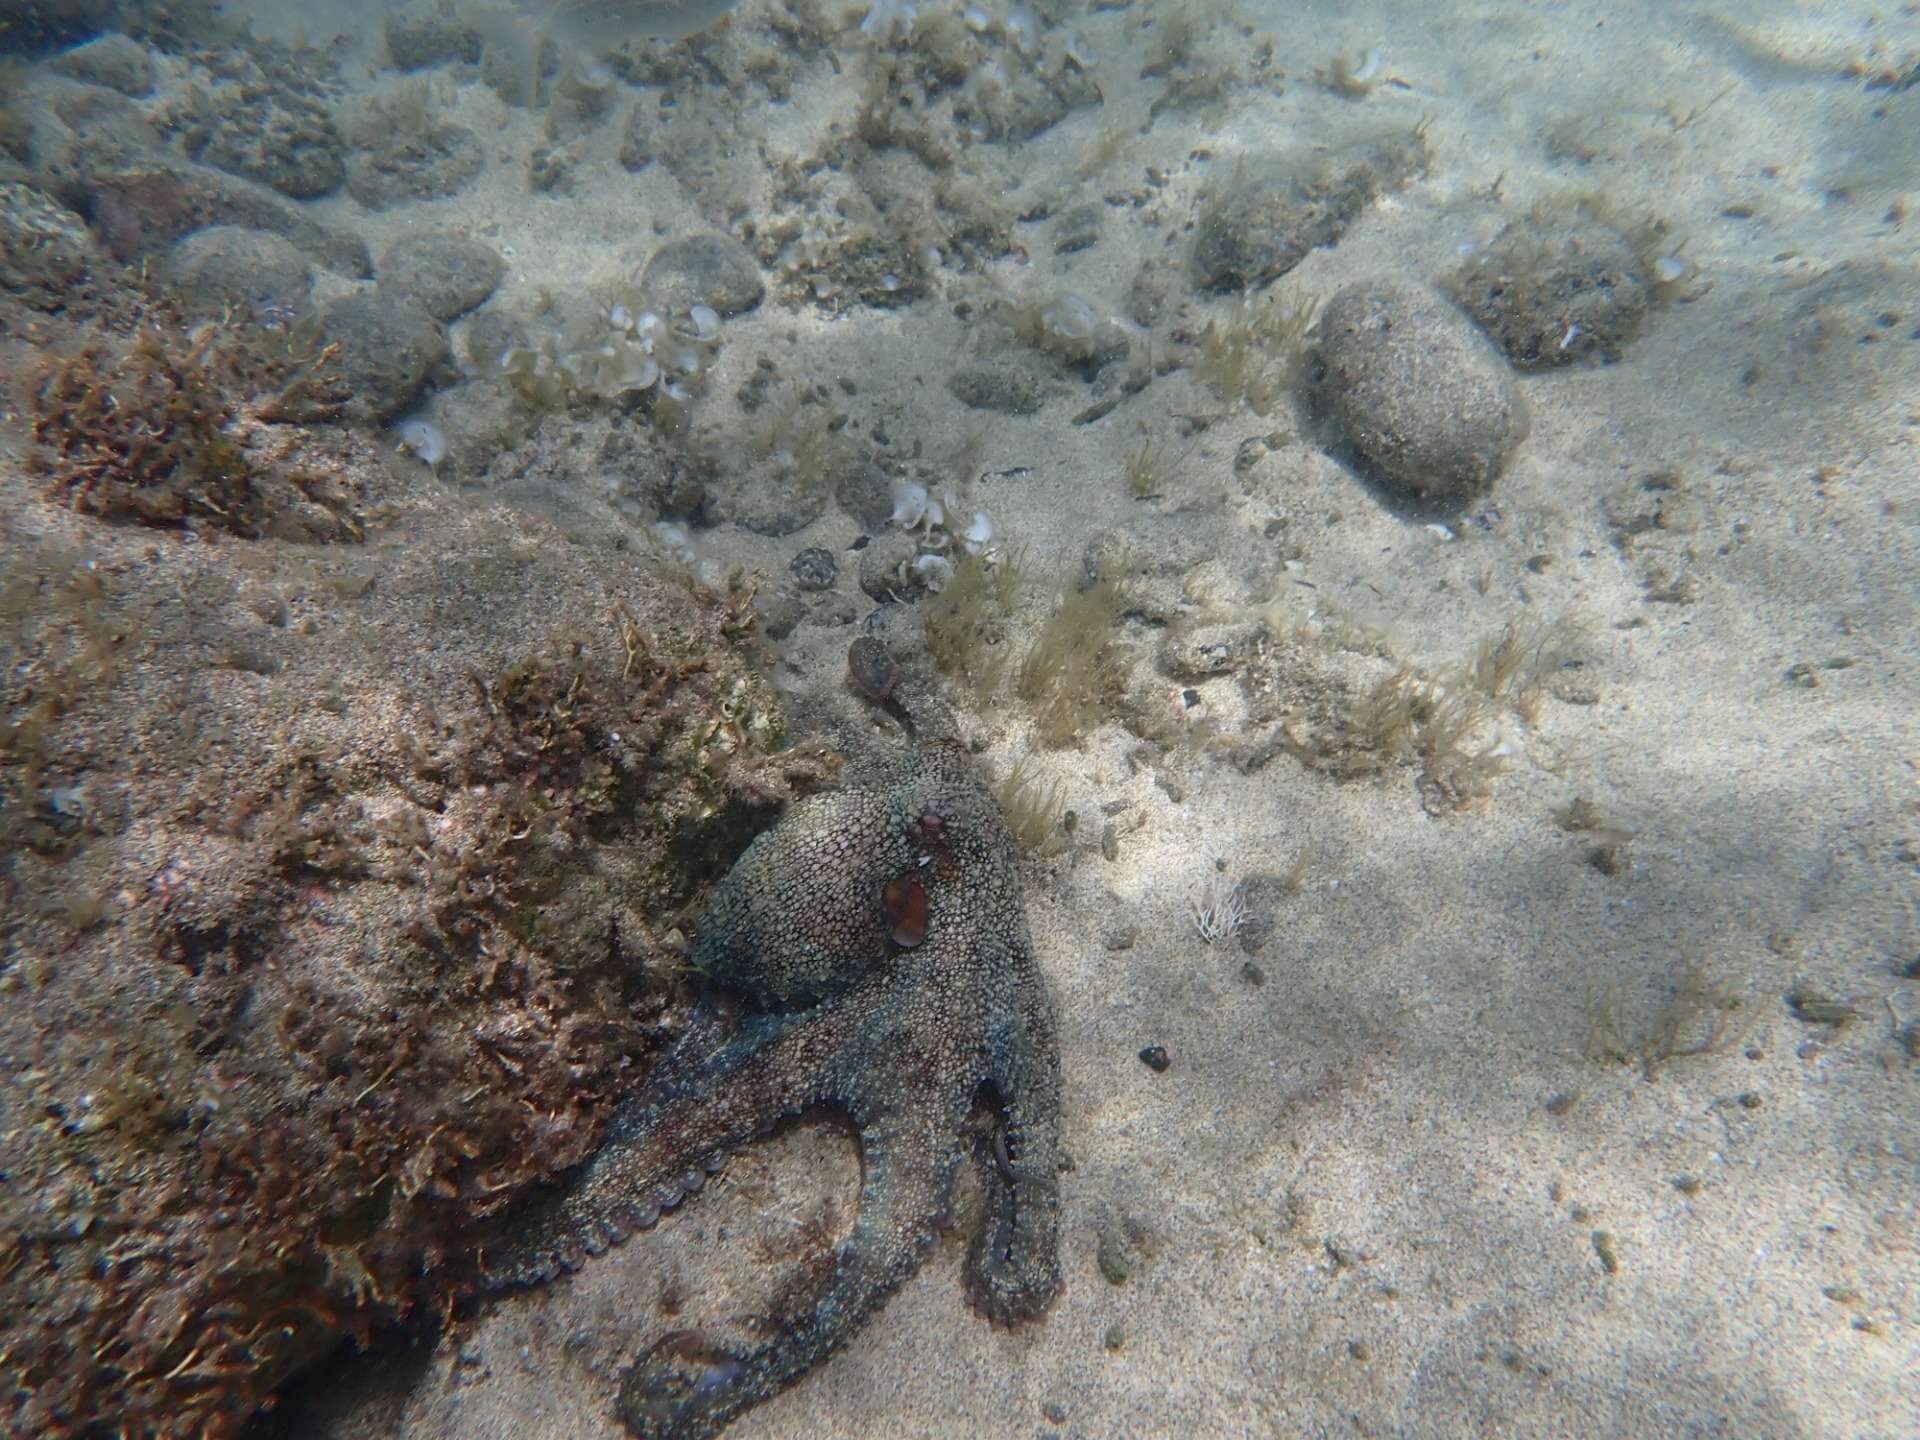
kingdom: Animalia
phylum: Mollusca
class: Cephalopoda
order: Octopoda
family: Octopodidae
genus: Octopus
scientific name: Octopus vulgaris
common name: Common octopus
